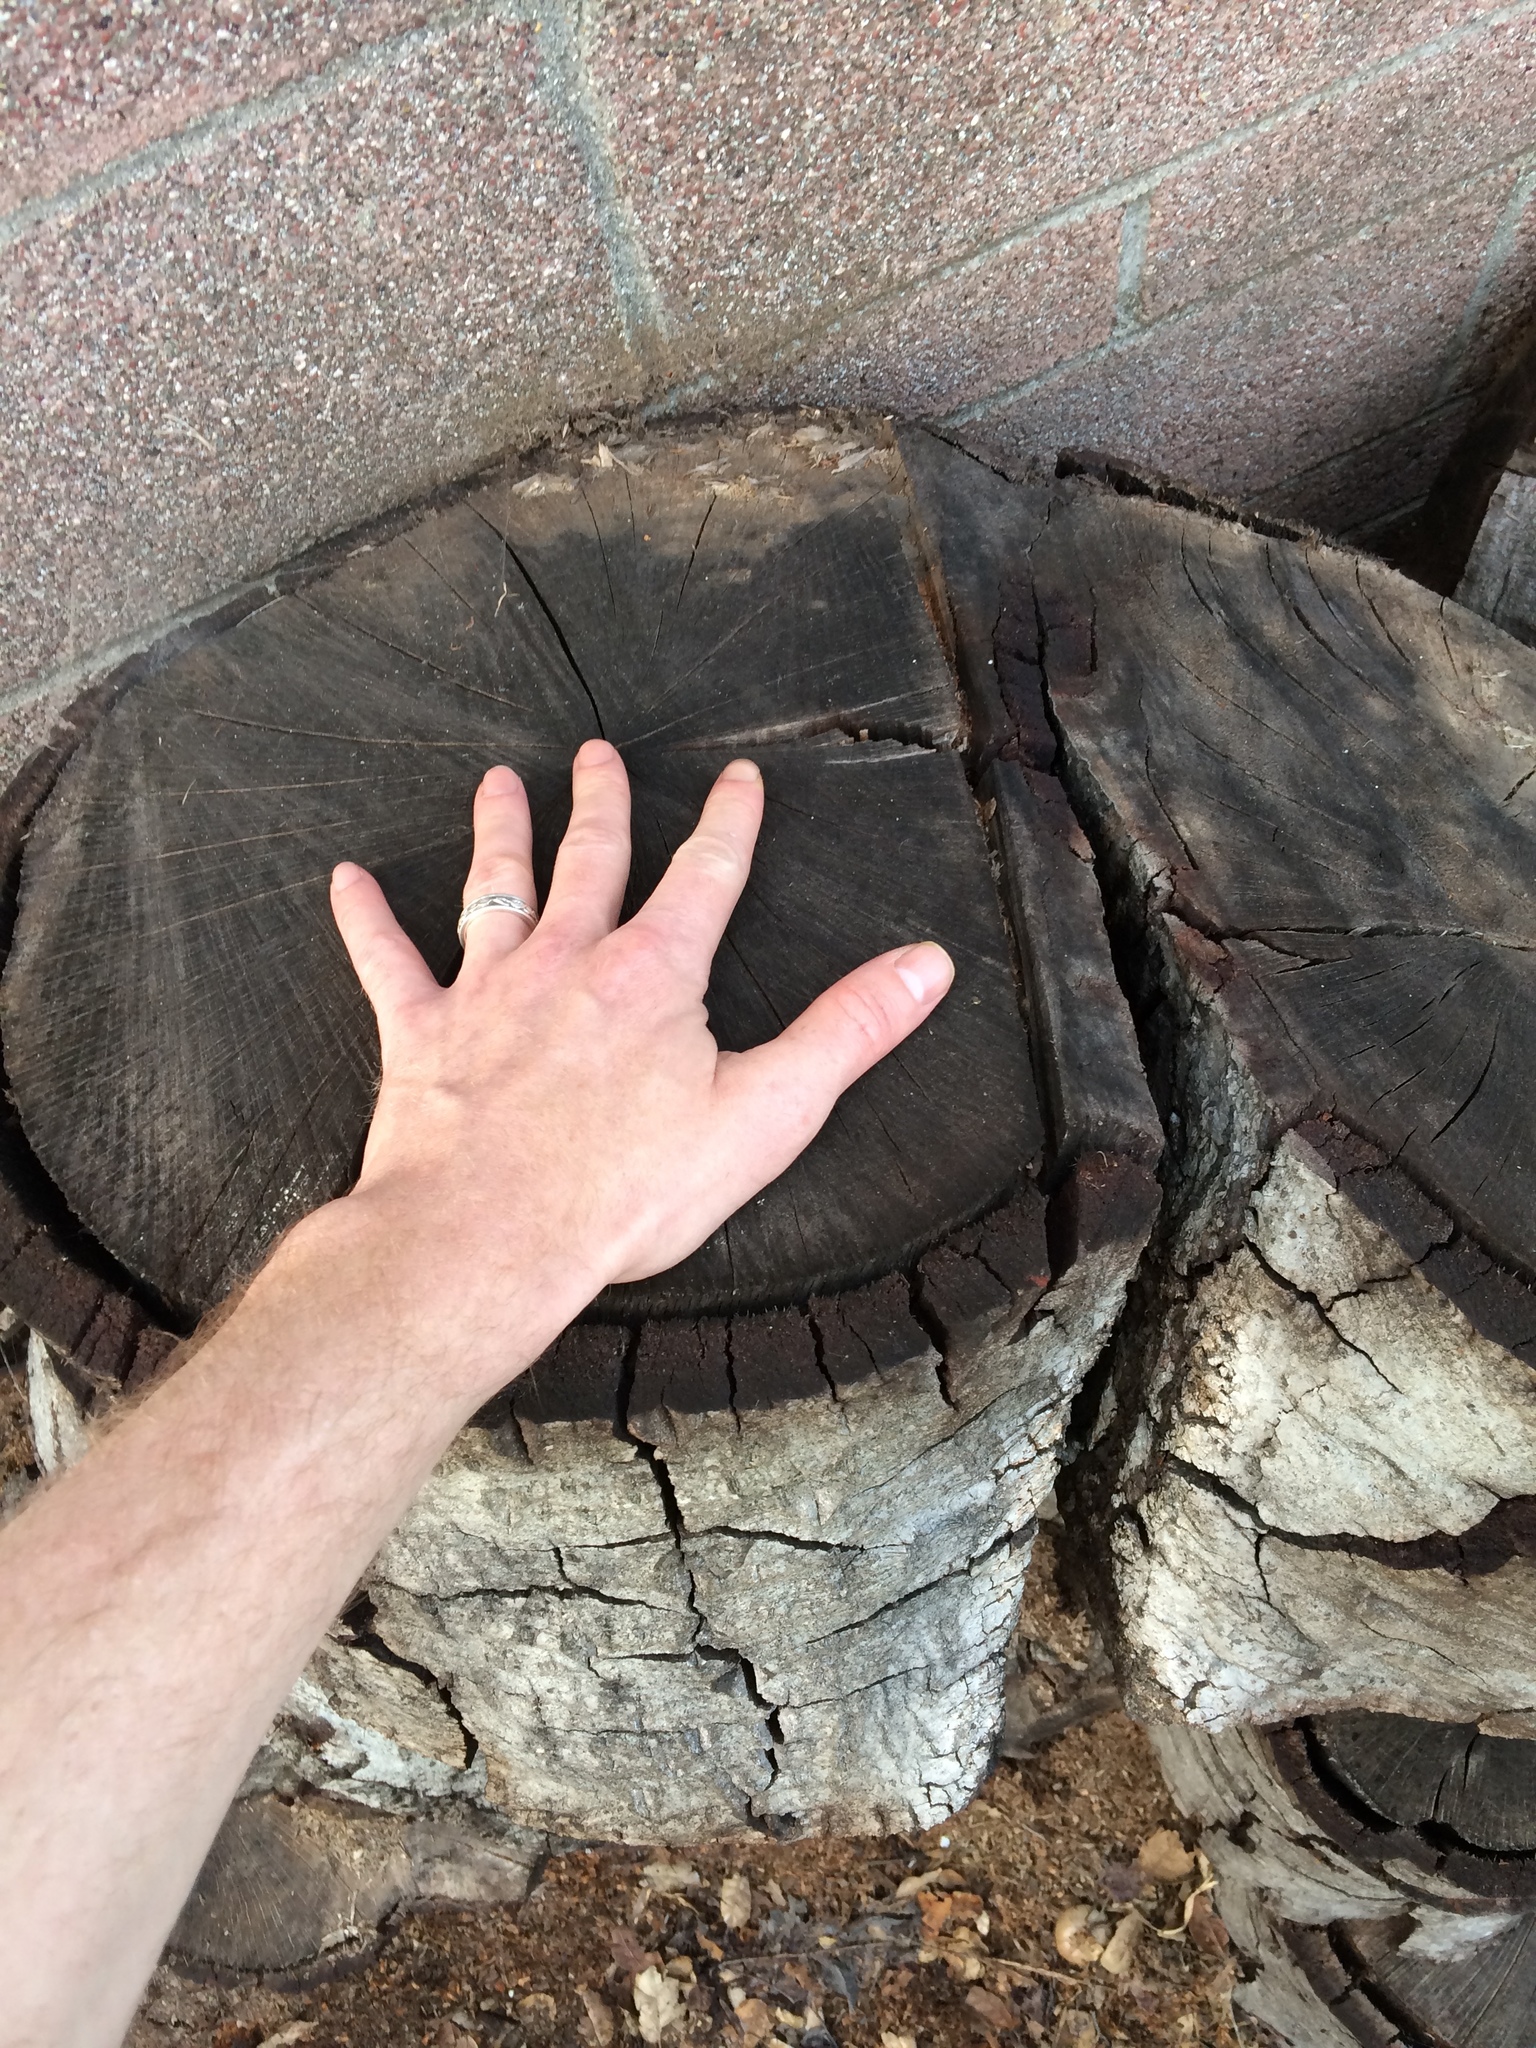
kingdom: Plantae
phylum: Tracheophyta
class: Magnoliopsida
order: Fagales
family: Fagaceae
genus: Quercus
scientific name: Quercus agrifolia
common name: California live oak
